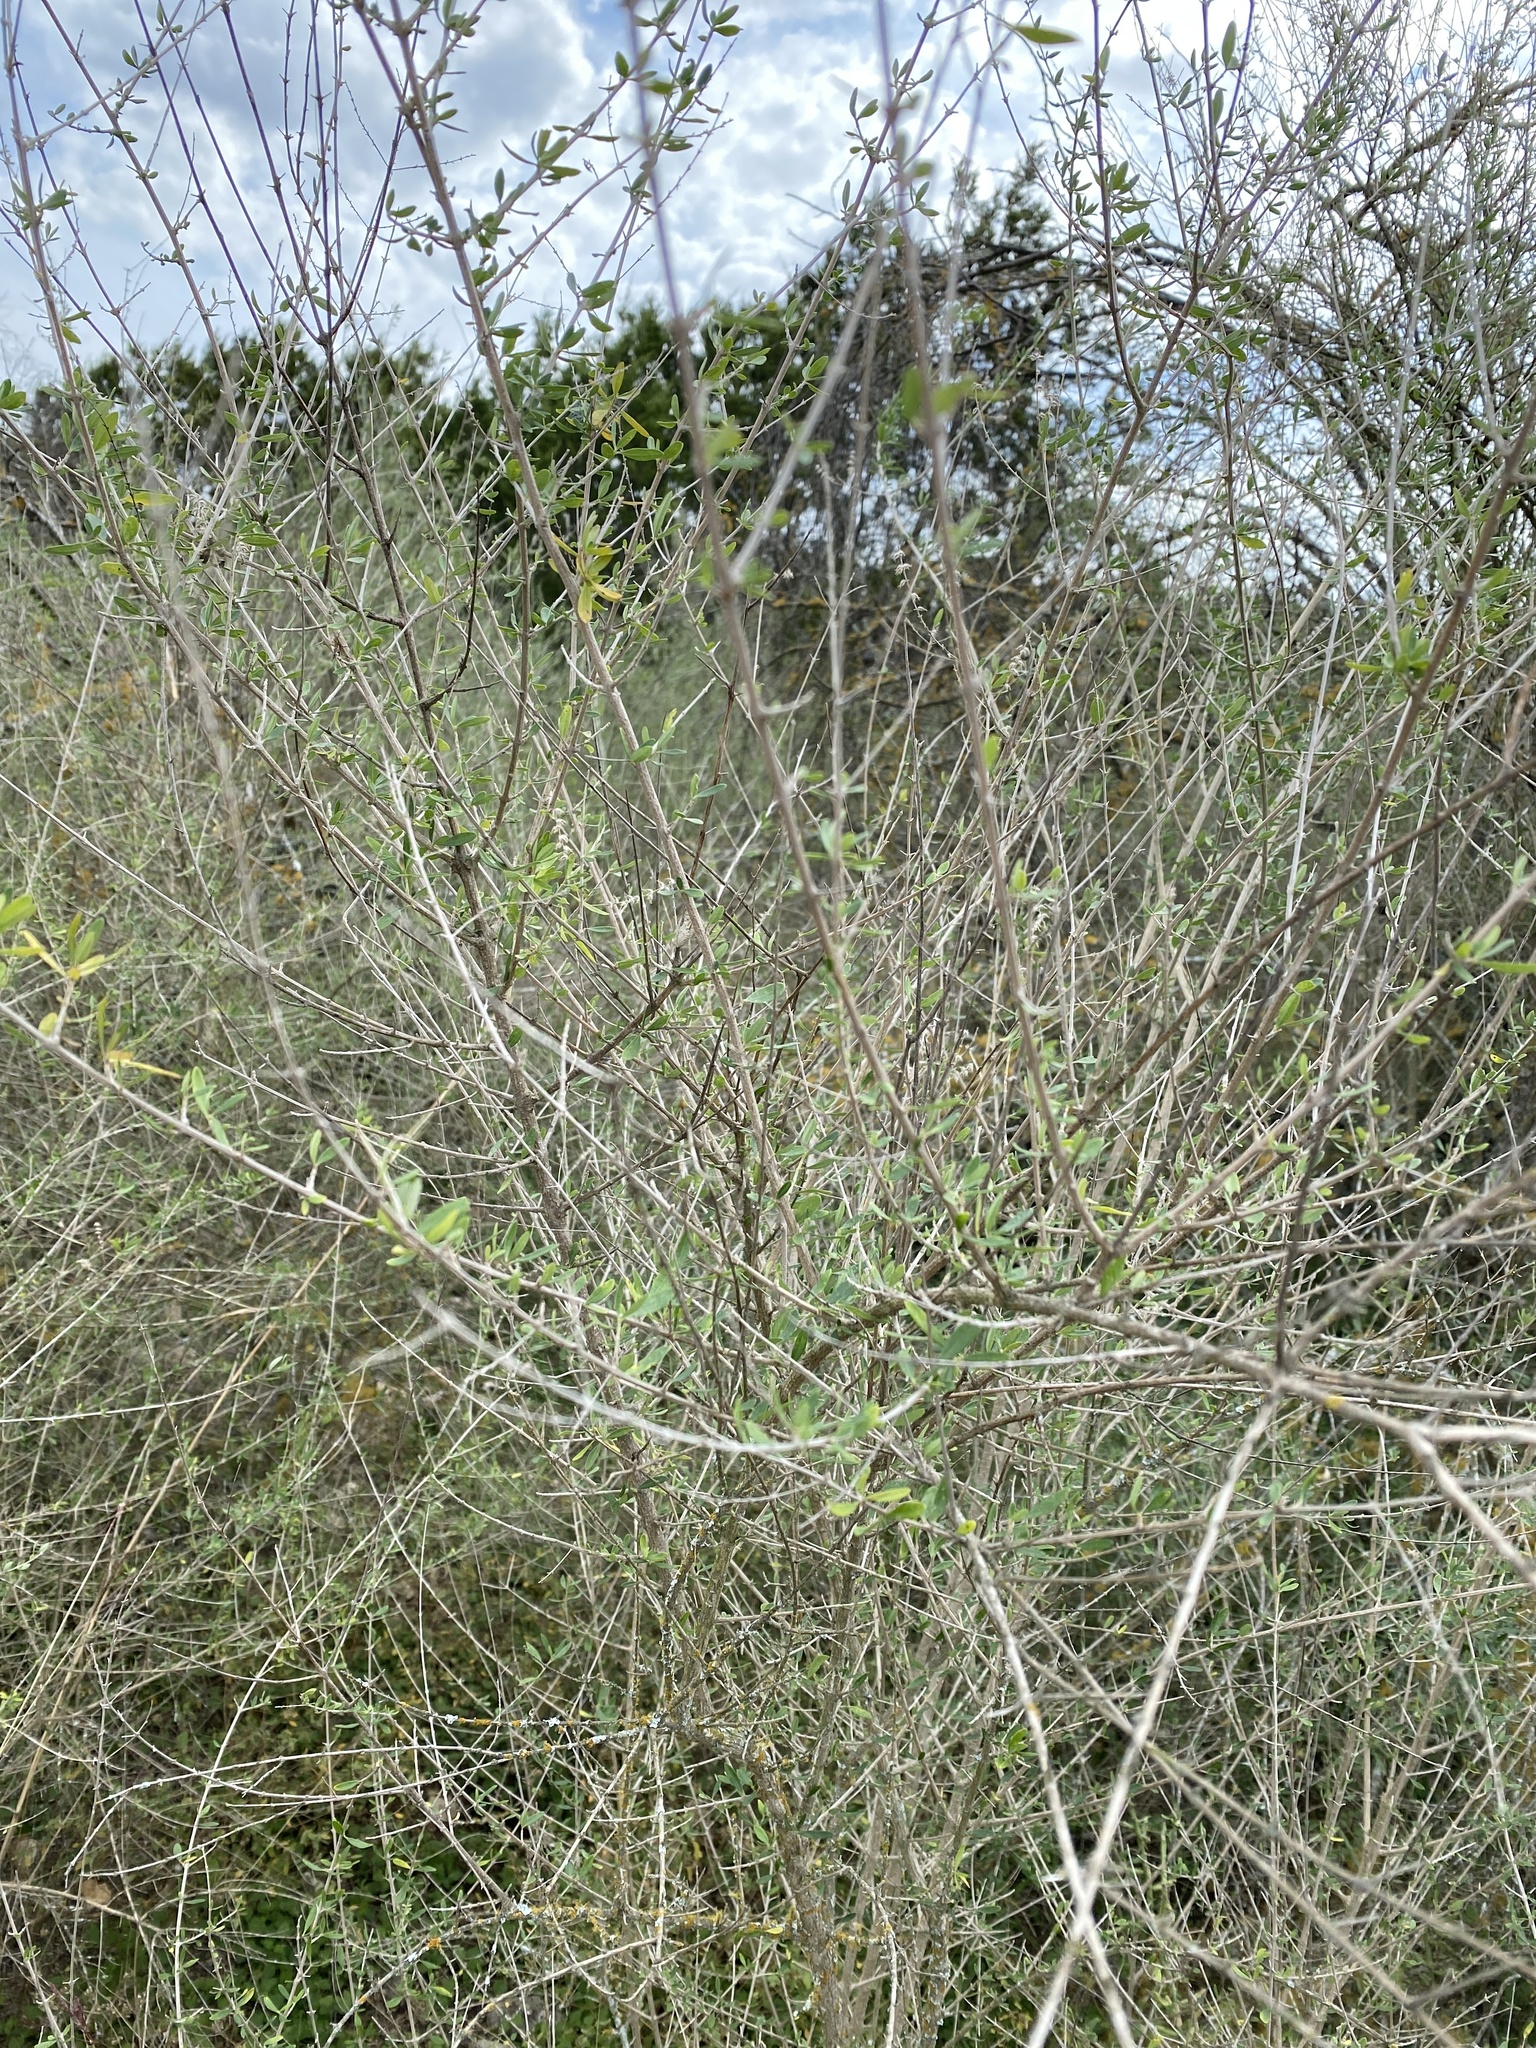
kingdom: Plantae
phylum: Tracheophyta
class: Magnoliopsida
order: Lamiales
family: Verbenaceae
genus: Aloysia
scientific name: Aloysia gratissima
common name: Common bee-brush
